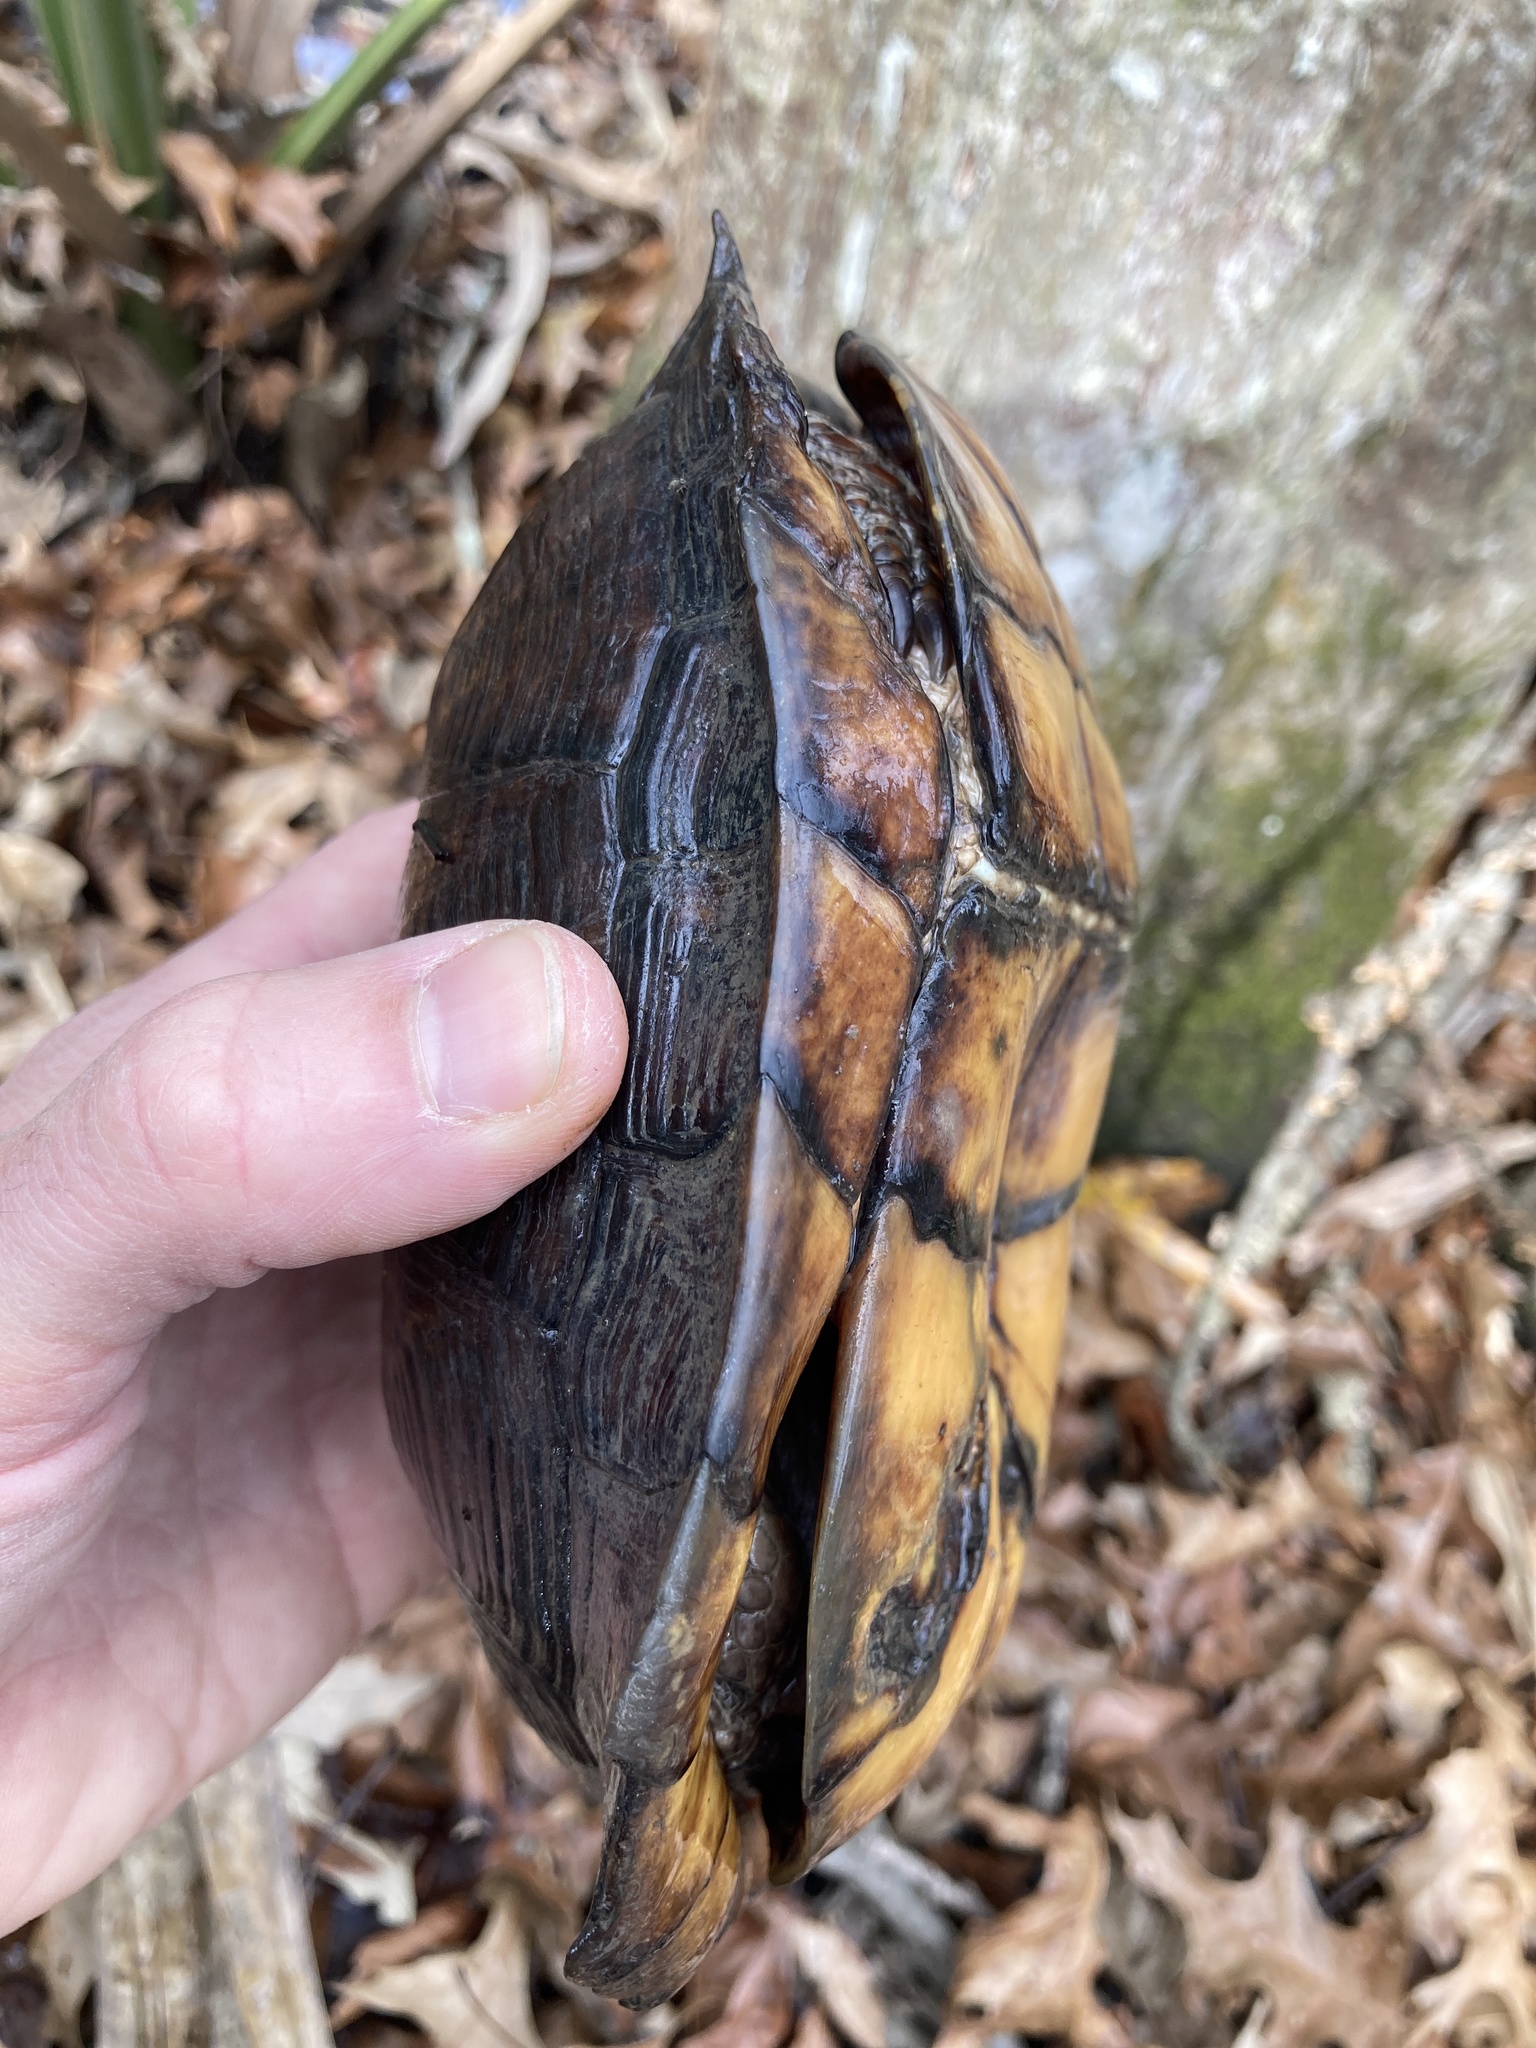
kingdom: Animalia
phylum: Chordata
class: Testudines
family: Emydidae
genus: Terrapene
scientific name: Terrapene carolina
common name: Common box turtle
